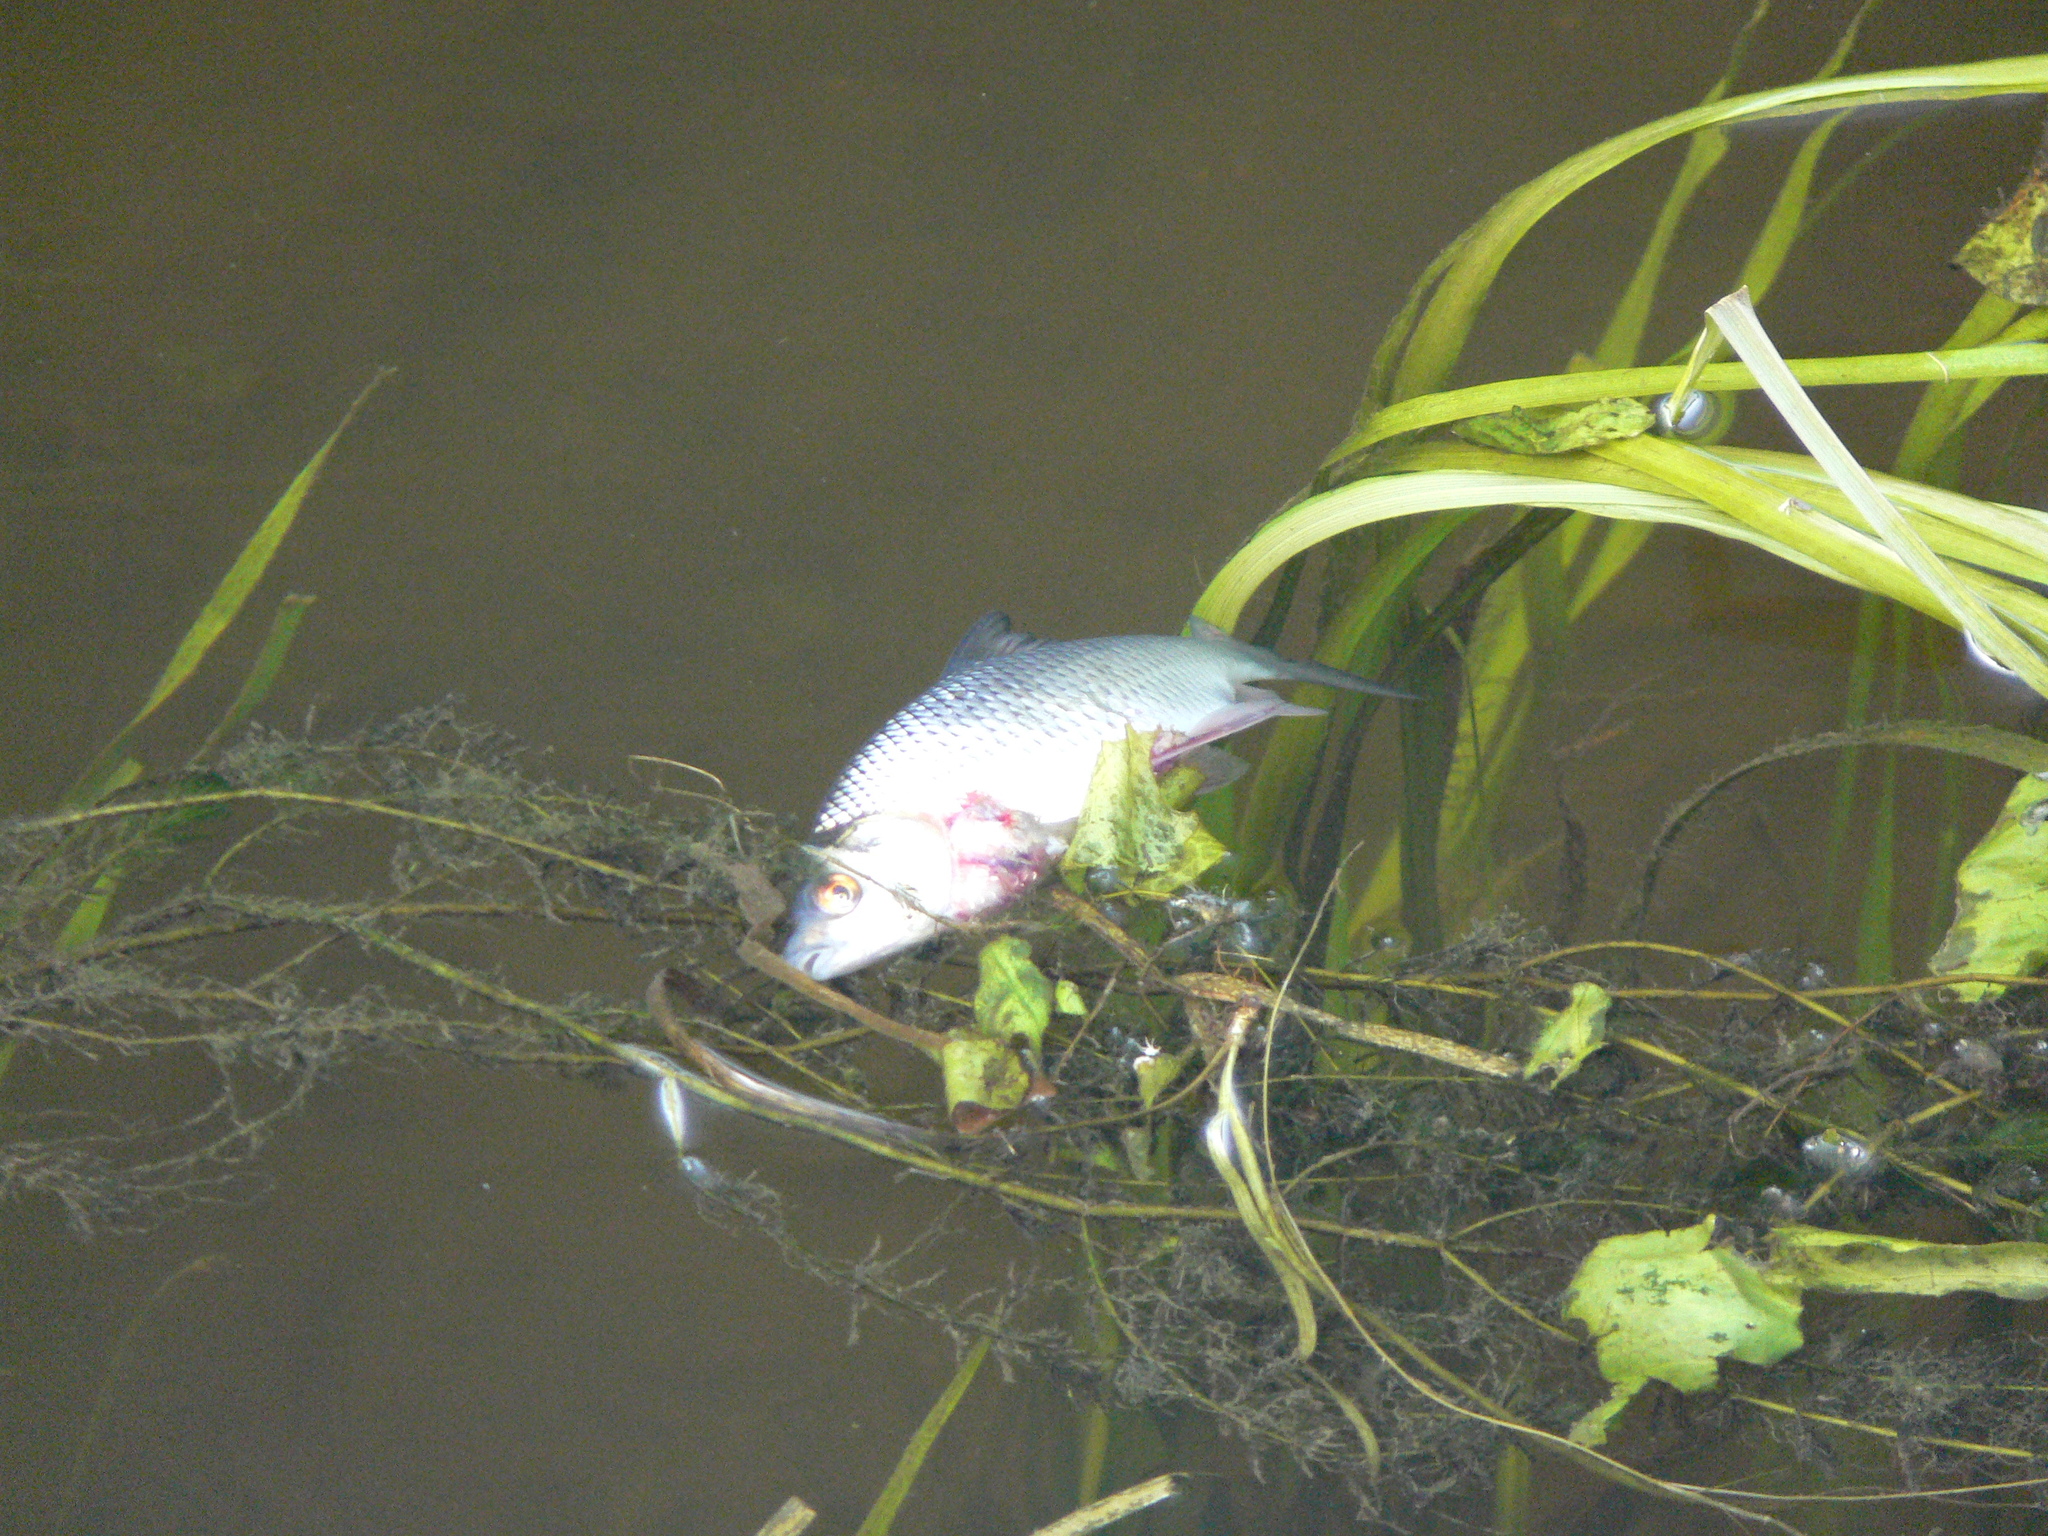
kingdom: Animalia
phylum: Chordata
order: Cypriniformes
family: Cyprinidae
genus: Chondrostoma
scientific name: Chondrostoma variabile
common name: Volga nase
